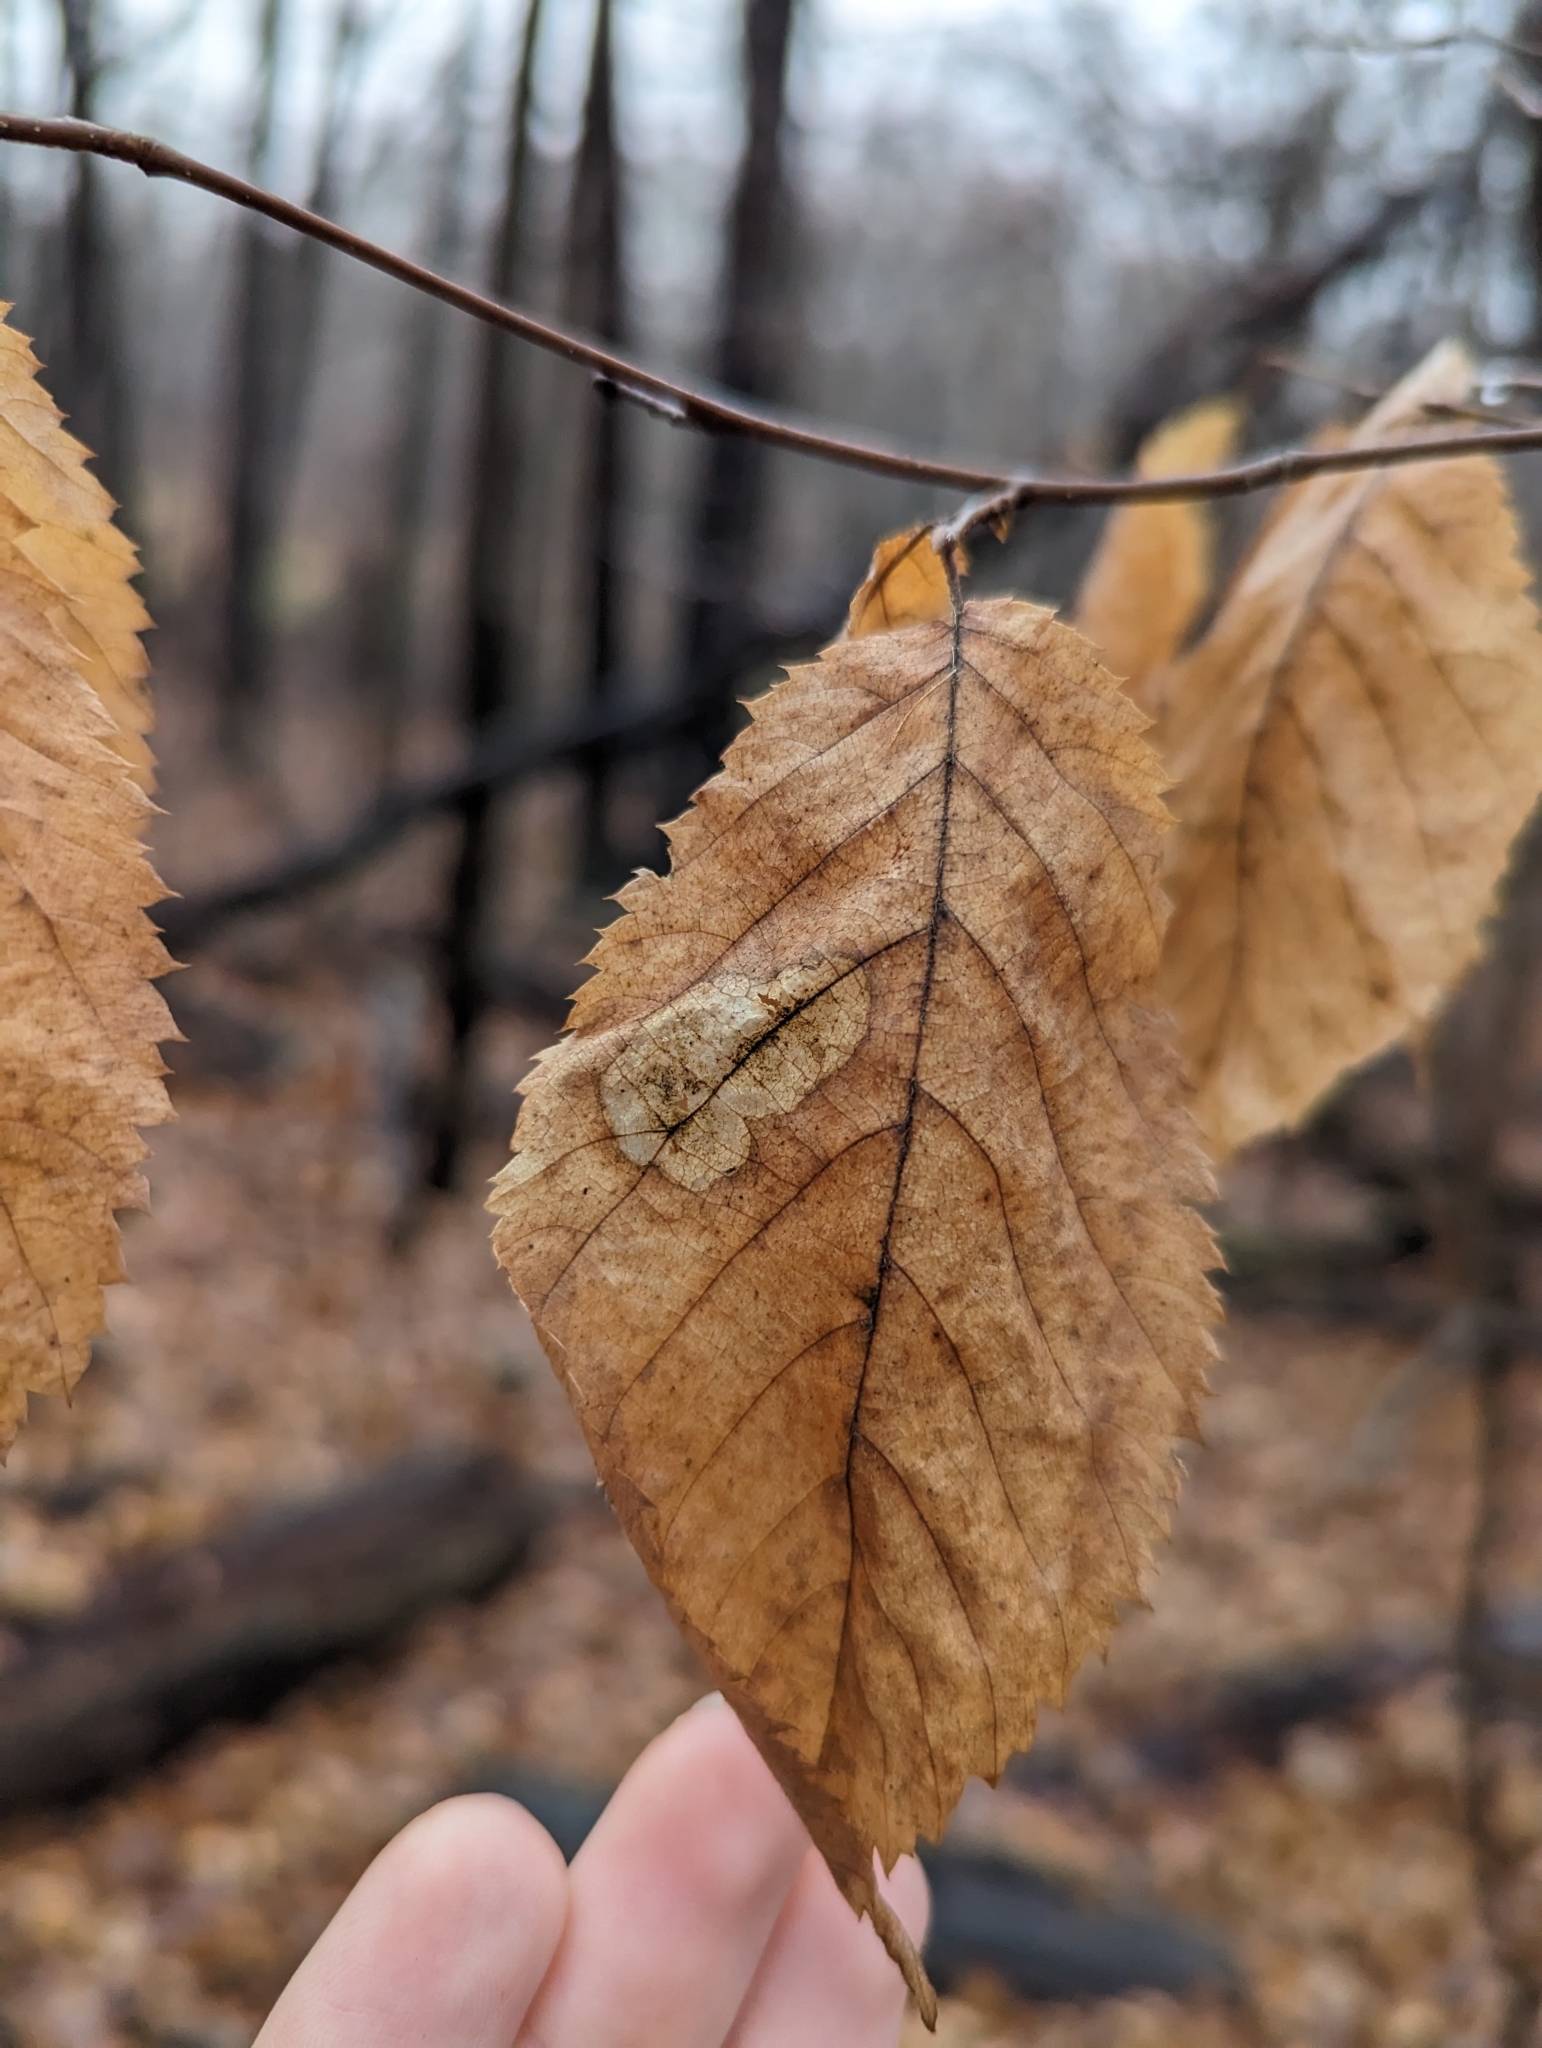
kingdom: Plantae
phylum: Tracheophyta
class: Magnoliopsida
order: Fagales
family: Betulaceae
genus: Ostrya
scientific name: Ostrya virginiana
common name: Ironwood
